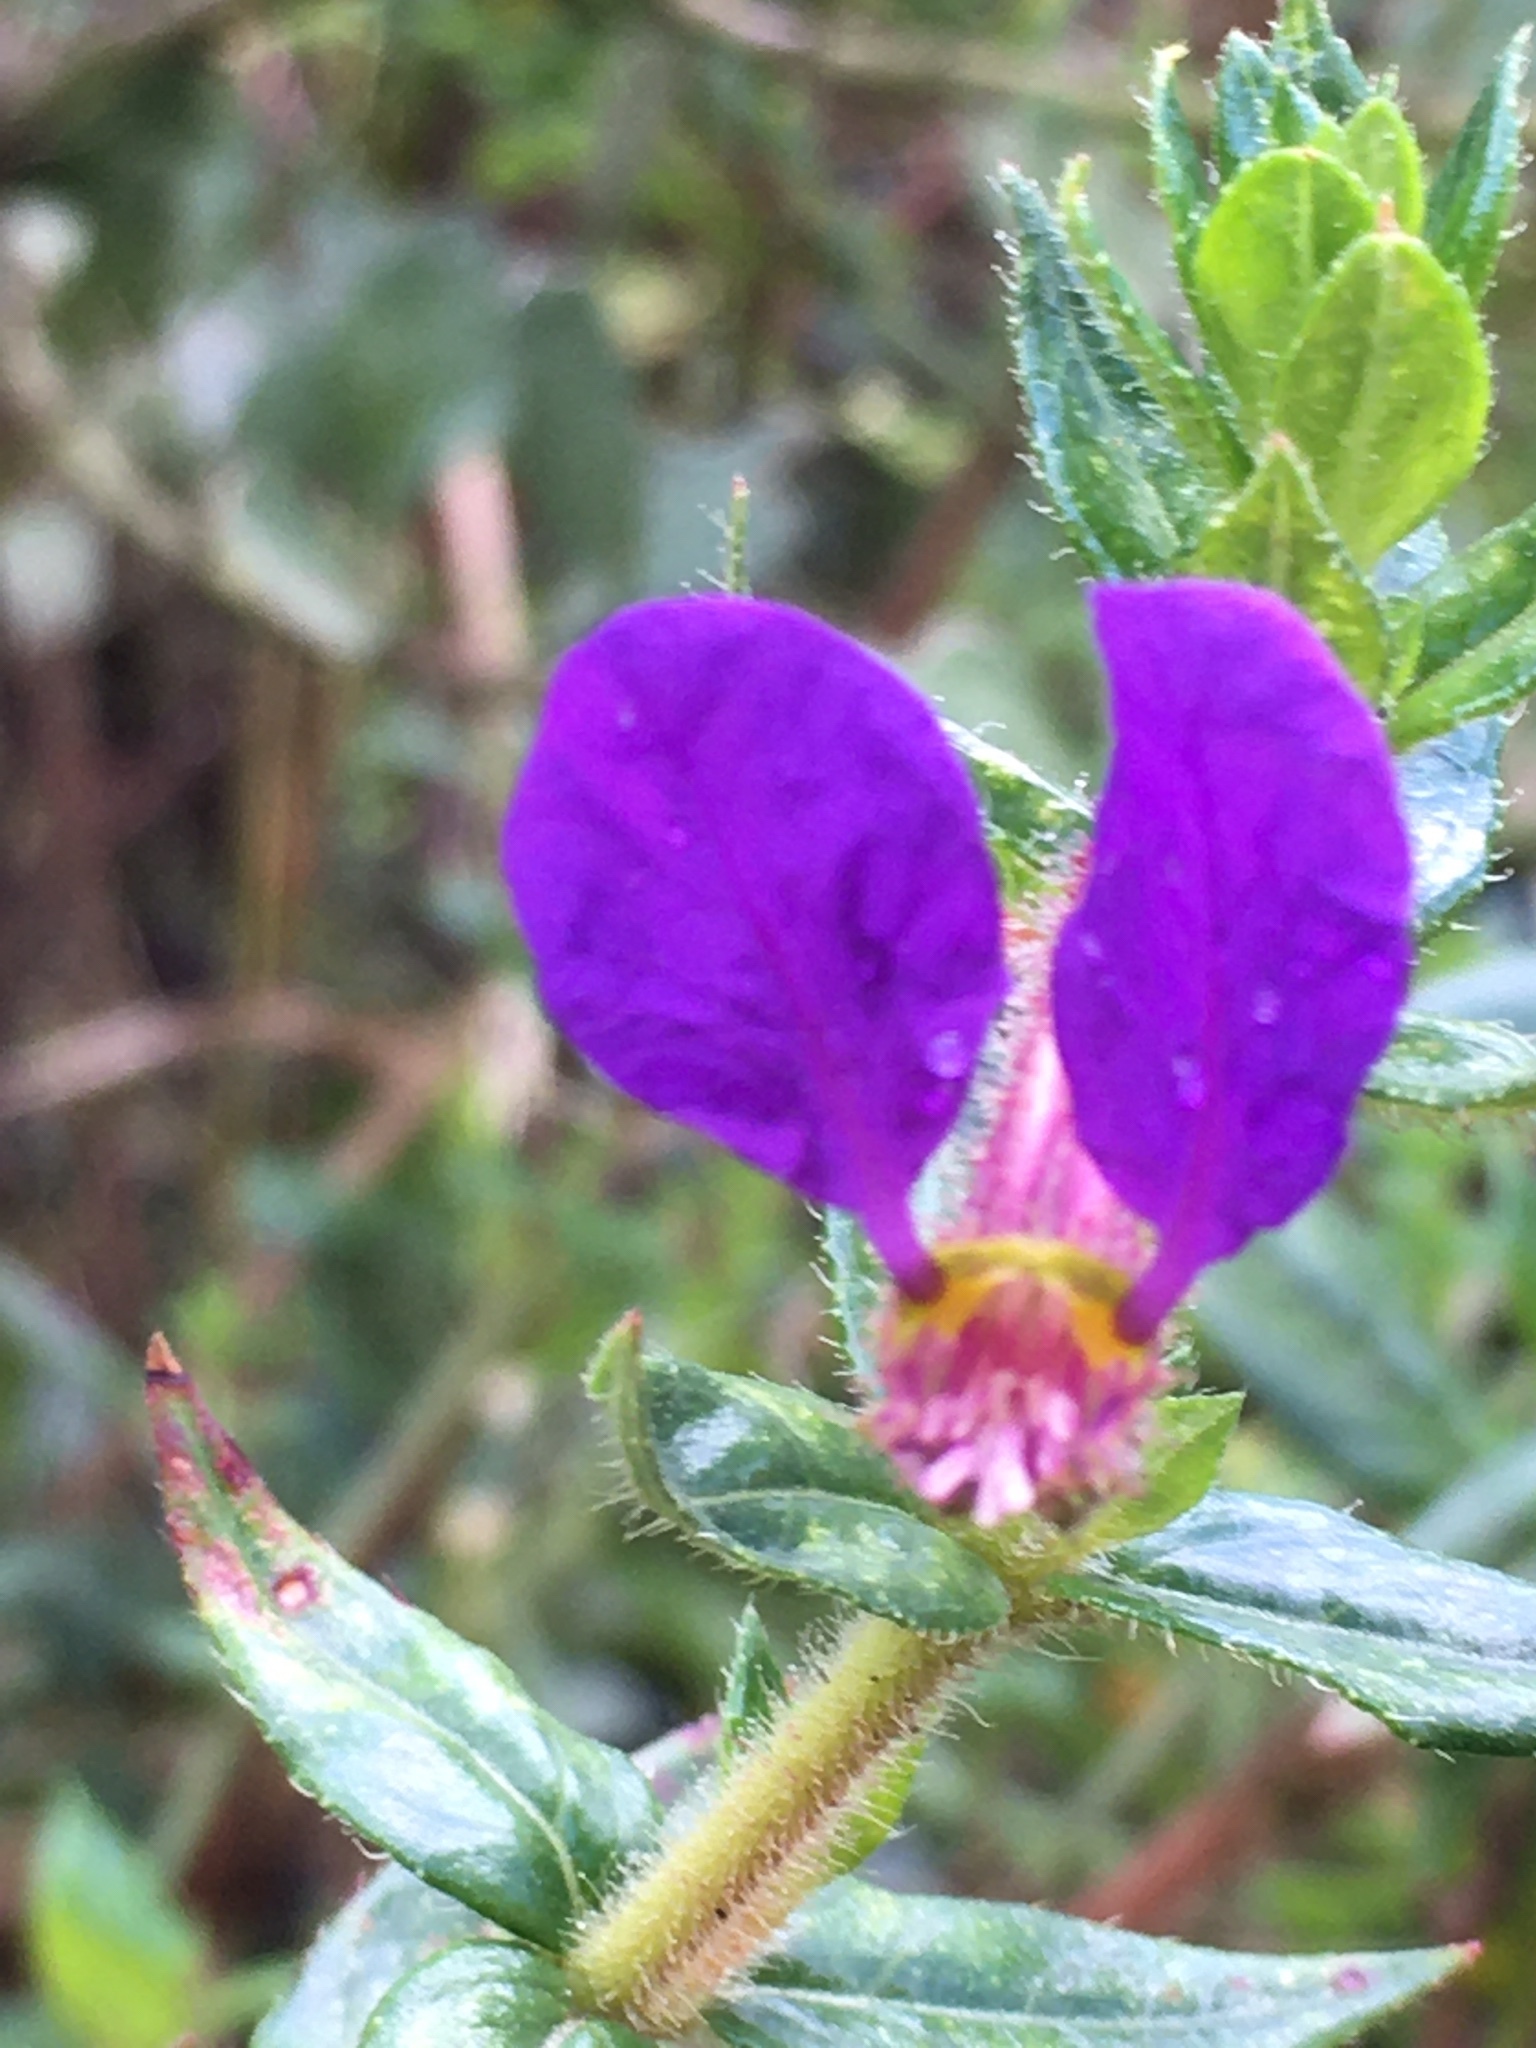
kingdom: Plantae
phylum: Tracheophyta
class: Magnoliopsida
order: Myrtales
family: Lythraceae
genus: Cuphea
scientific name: Cuphea dipetala
